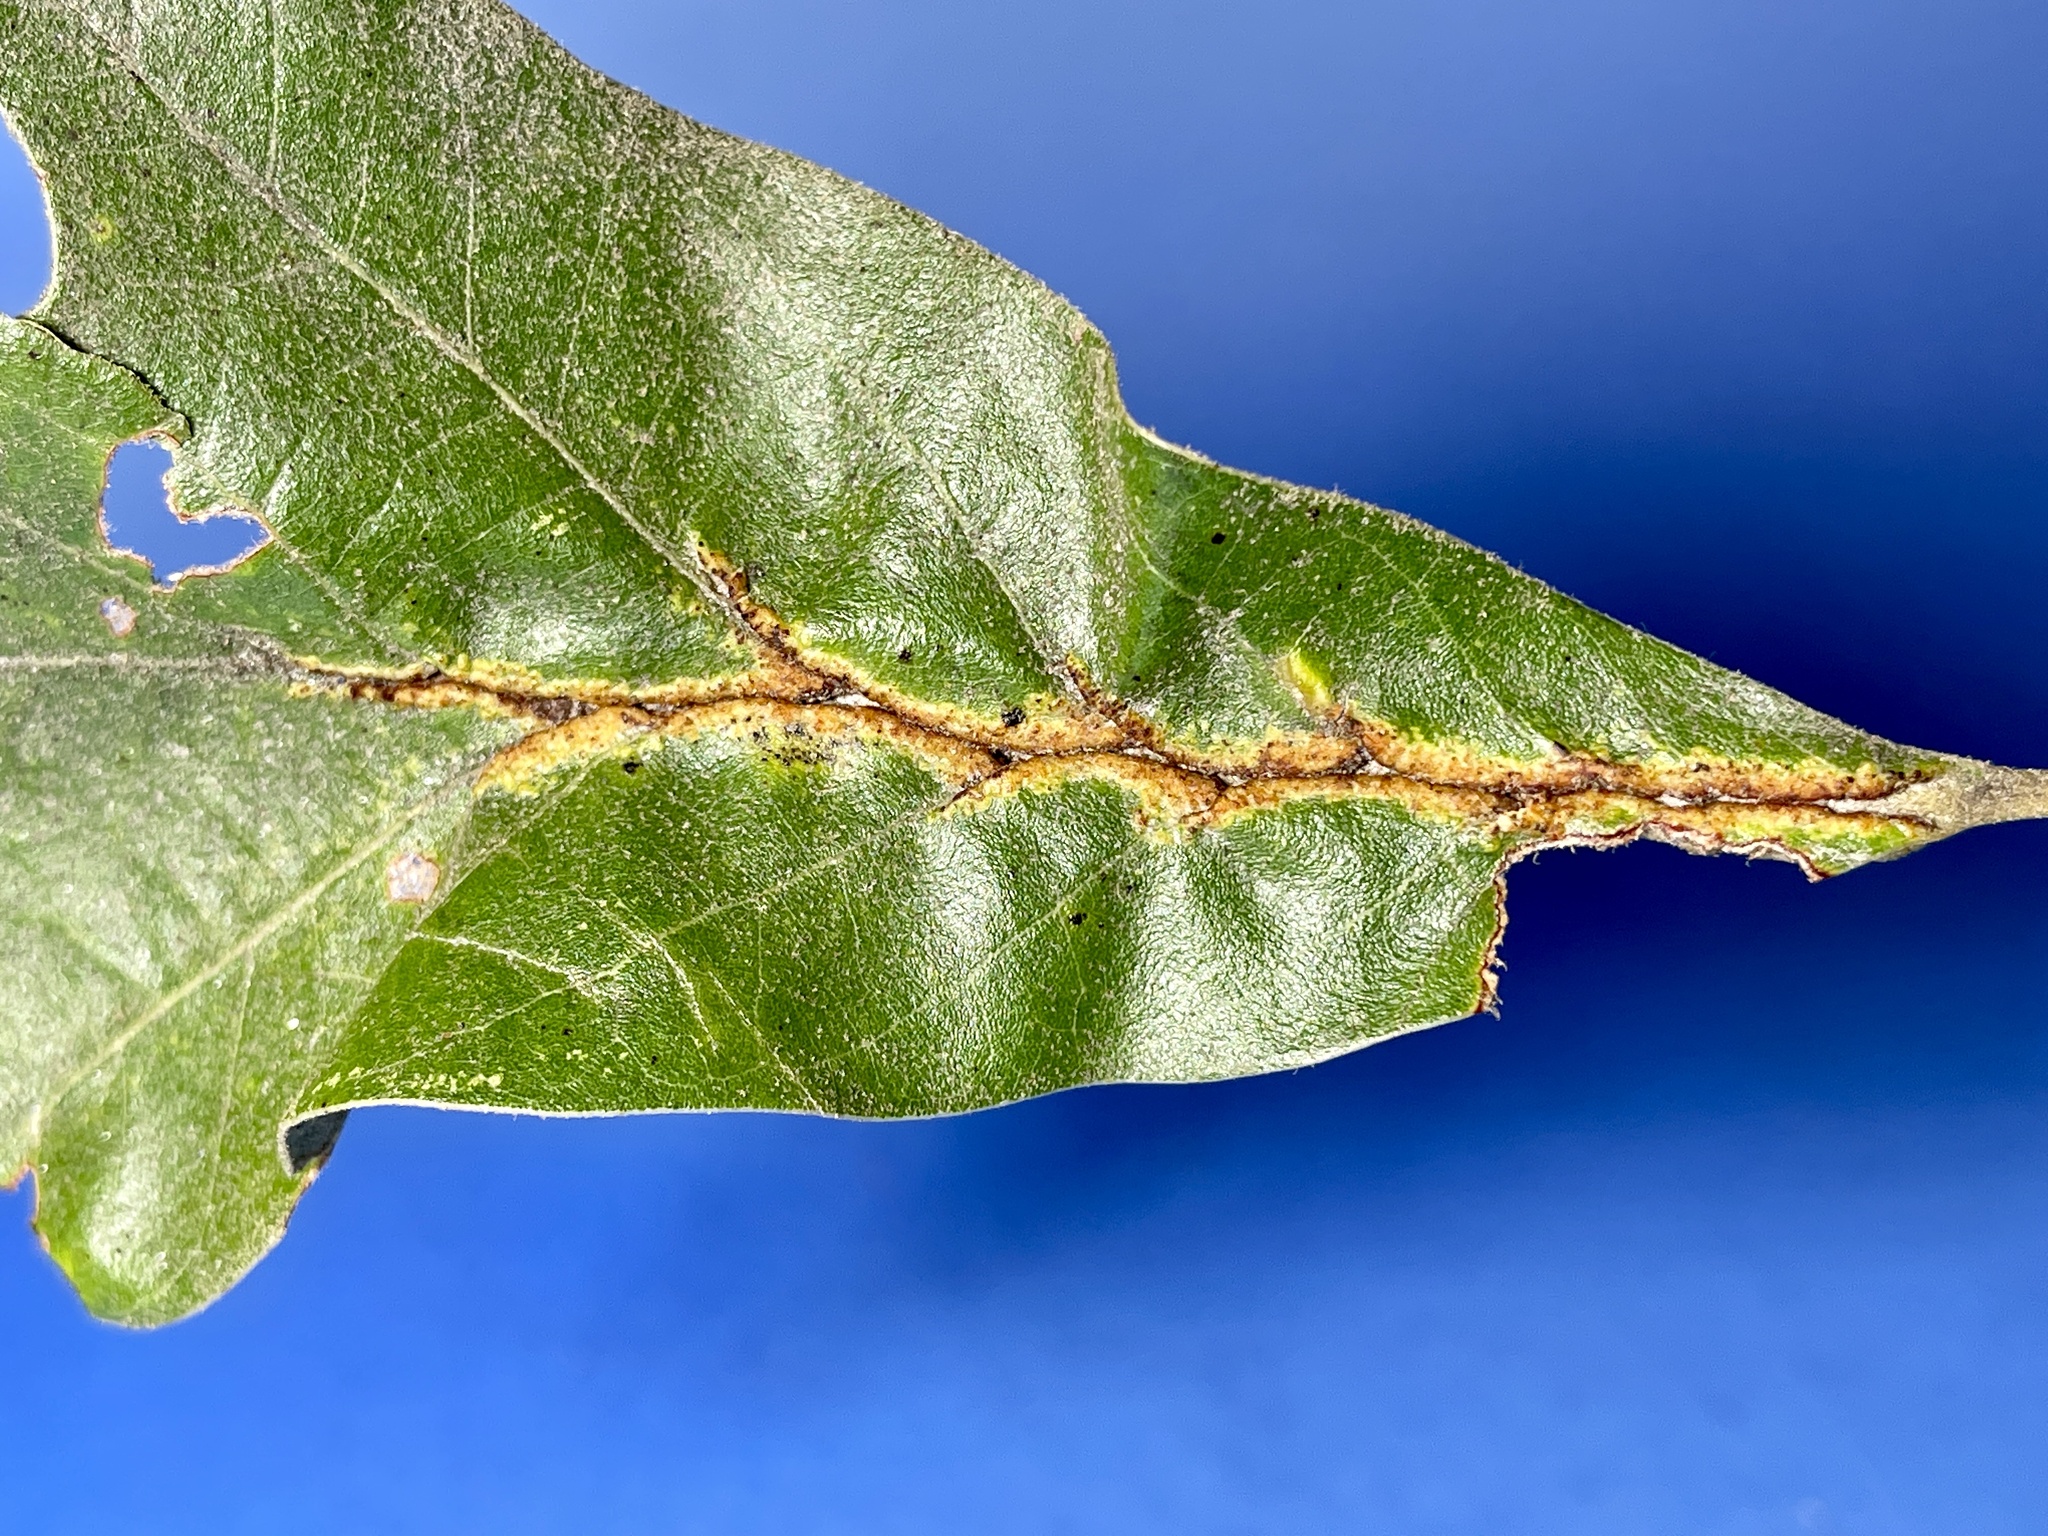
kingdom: Animalia
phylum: Arthropoda
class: Insecta
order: Diptera
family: Cecidomyiidae
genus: Macrodiplosis
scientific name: Macrodiplosis q-orucum
